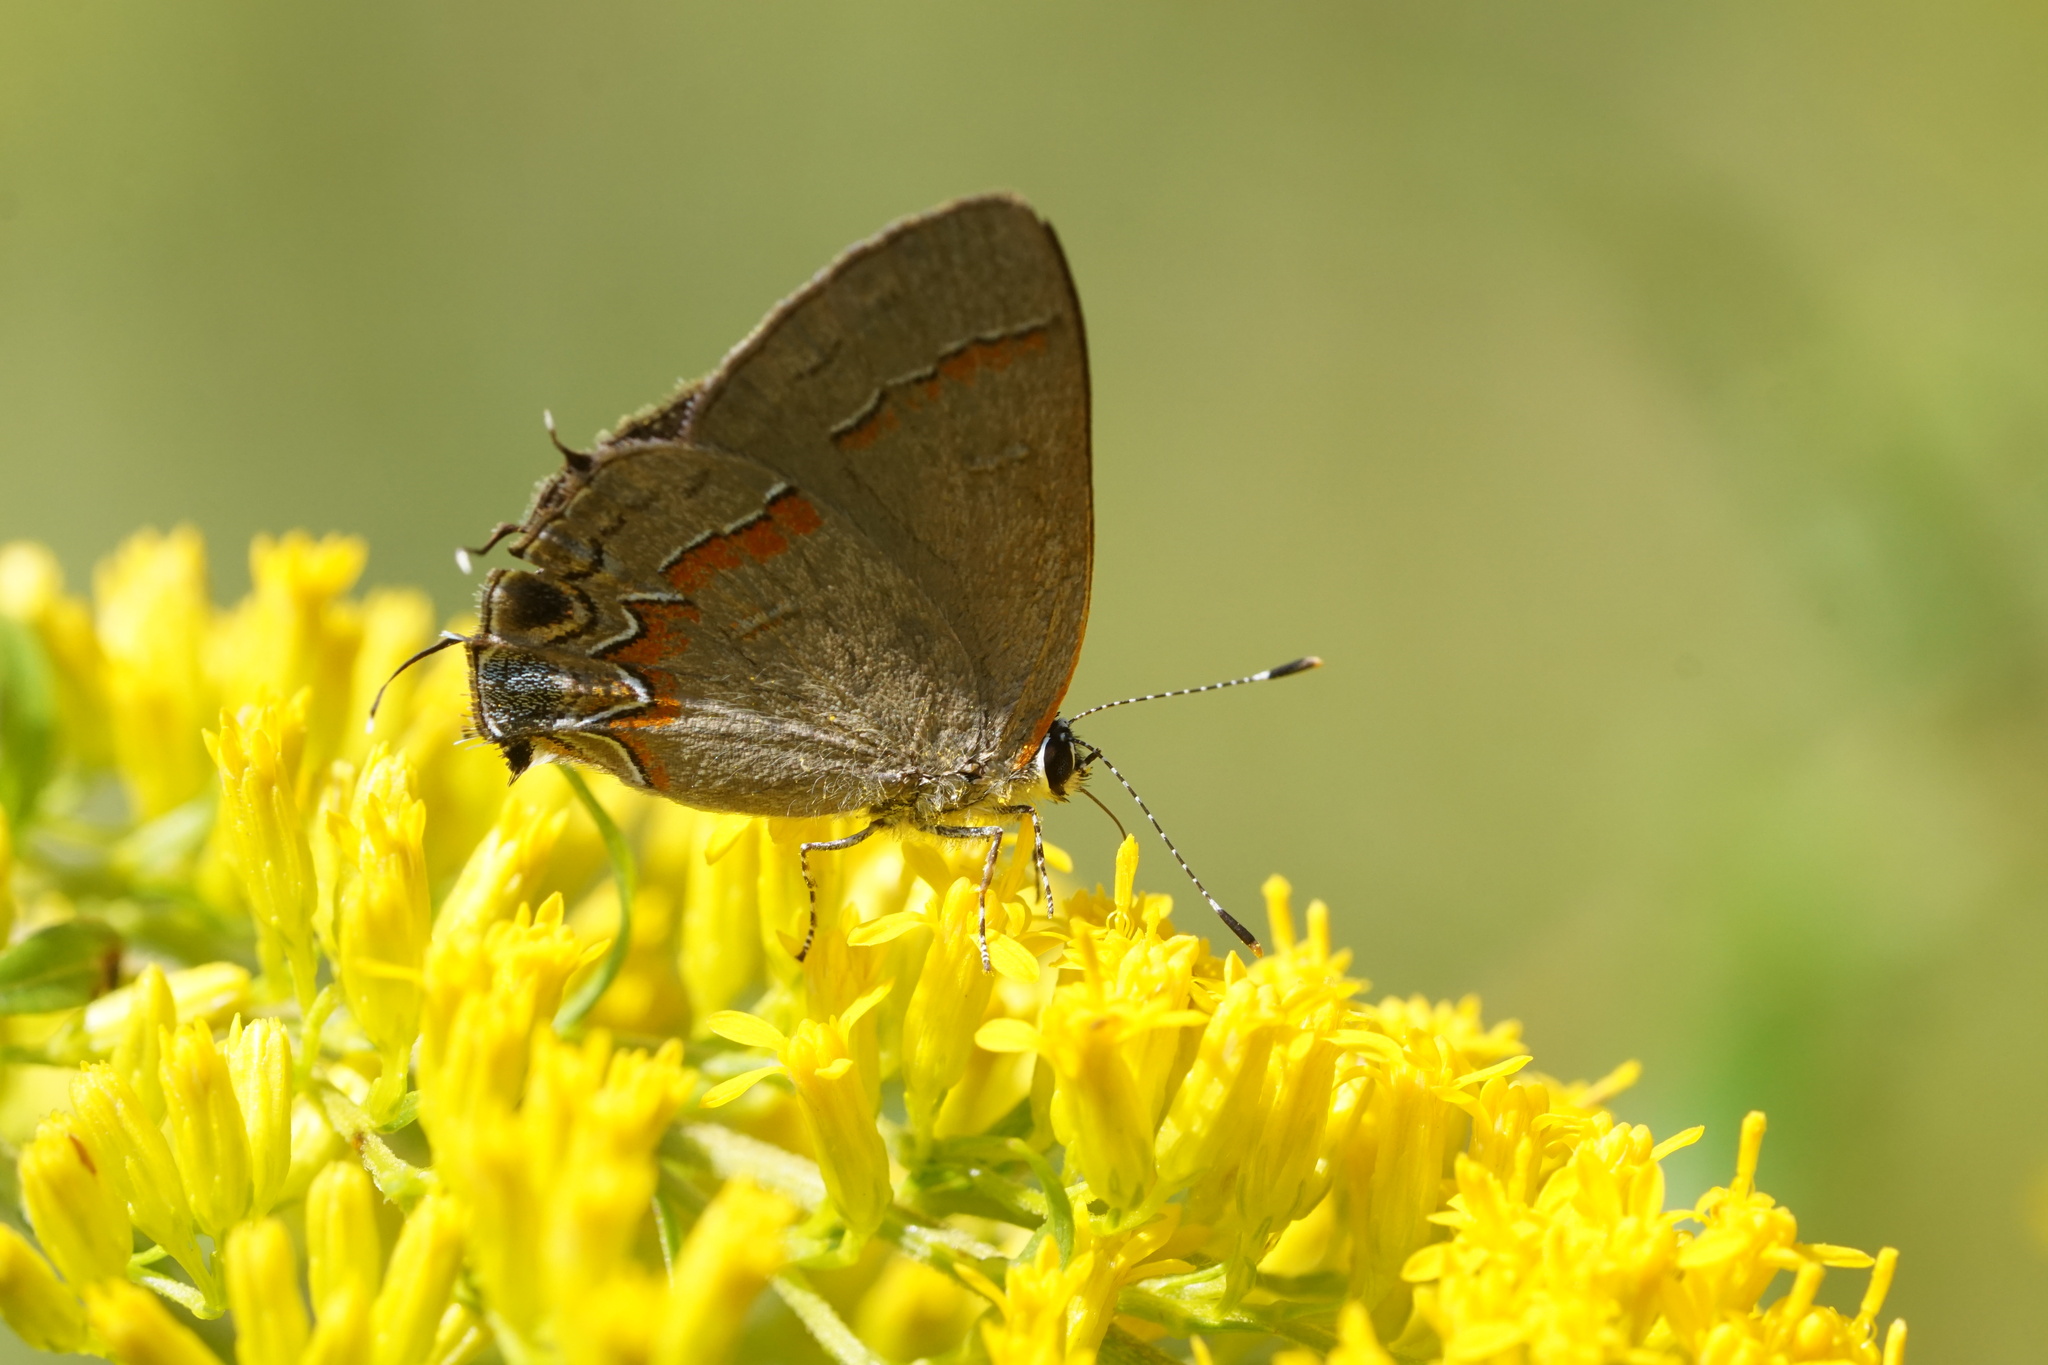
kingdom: Animalia
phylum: Arthropoda
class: Insecta
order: Lepidoptera
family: Lycaenidae
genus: Calycopis
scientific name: Calycopis cecrops
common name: Red-banded hairstreak
